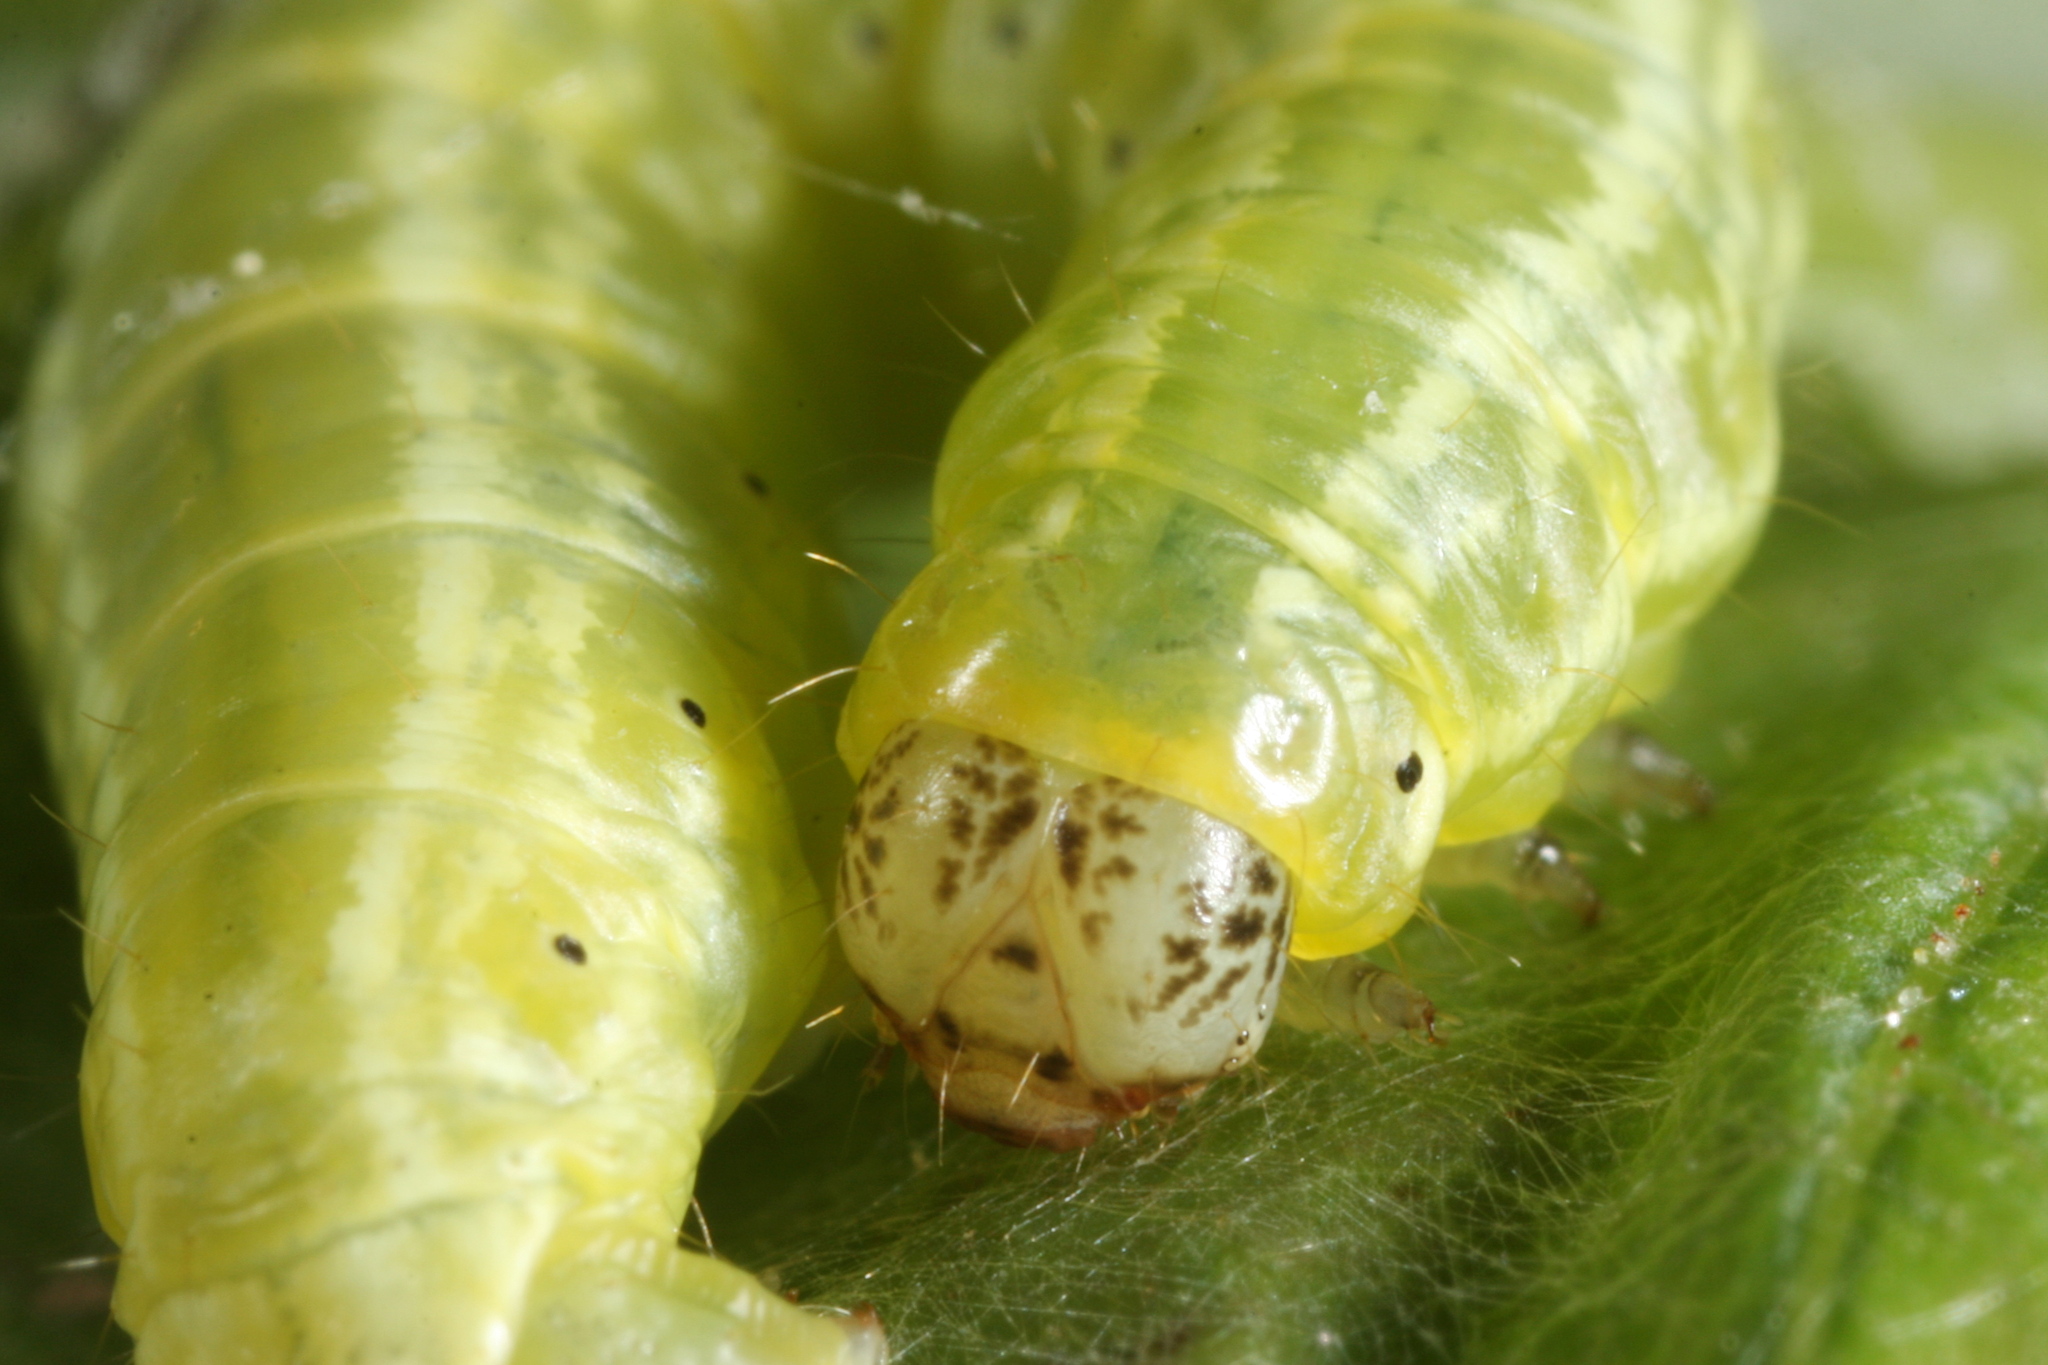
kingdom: Animalia
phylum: Arthropoda
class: Insecta
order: Lepidoptera
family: Geometridae
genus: Operophtera
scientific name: Operophtera fagata
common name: Northern winter moth
